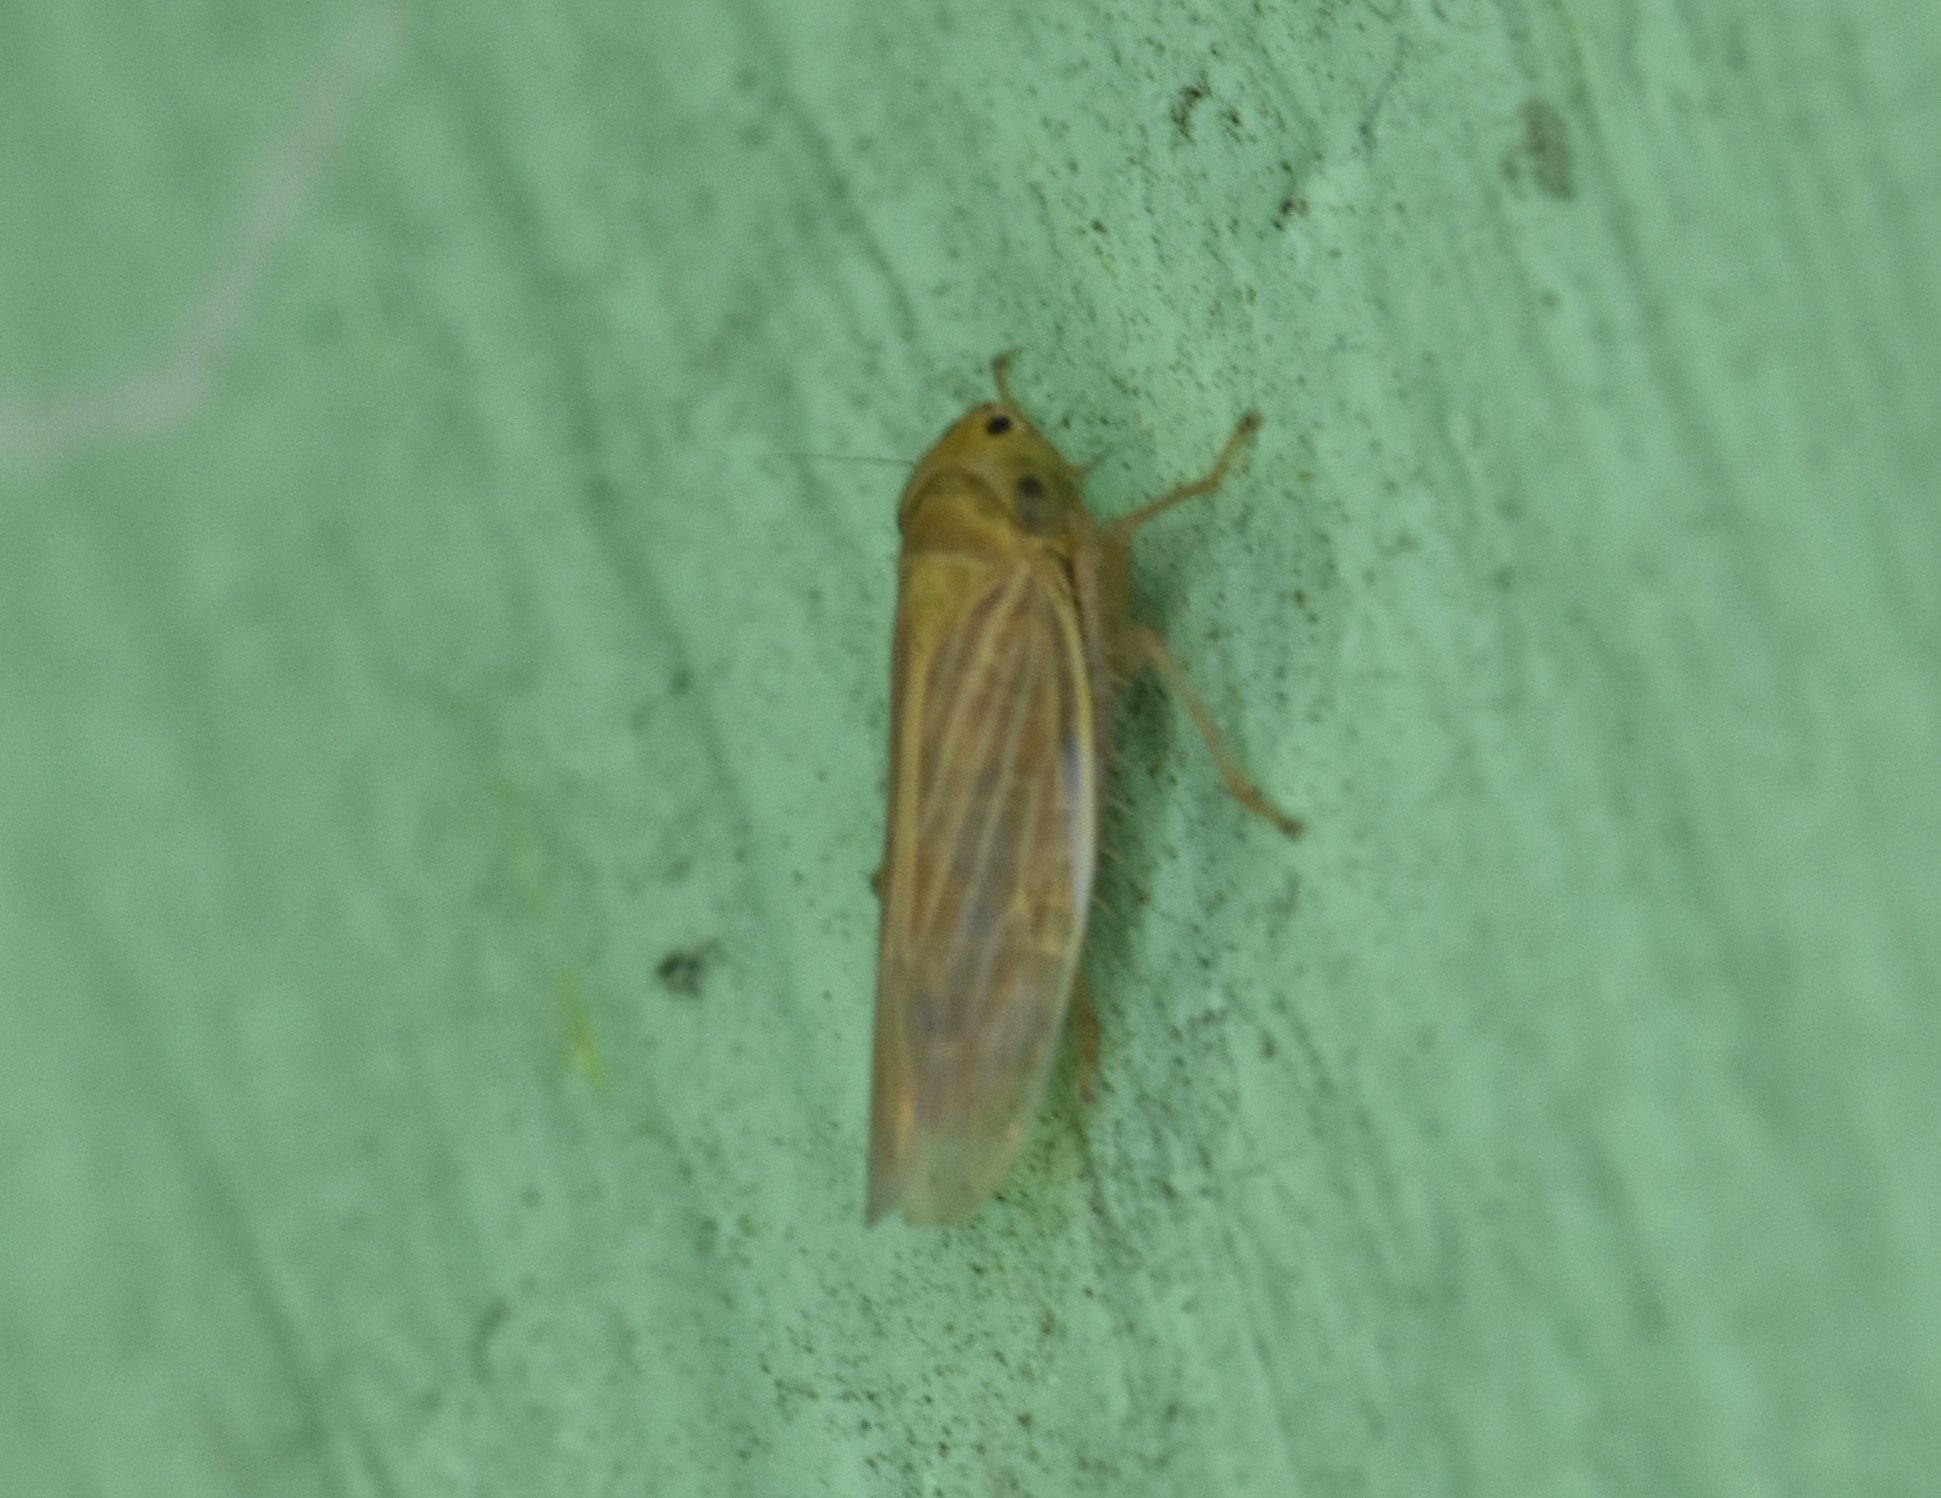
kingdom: Animalia
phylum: Arthropoda
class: Insecta
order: Hemiptera
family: Cicadellidae
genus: Graminella
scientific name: Graminella cognita
